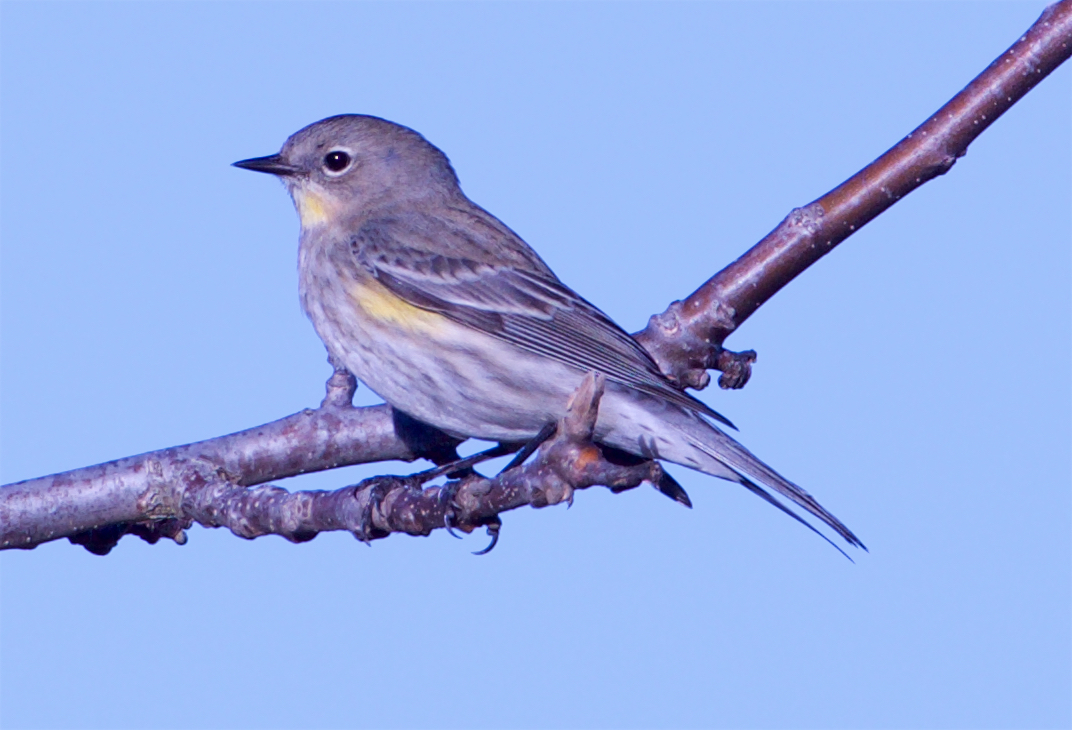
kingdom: Animalia
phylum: Chordata
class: Aves
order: Passeriformes
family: Parulidae
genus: Setophaga
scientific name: Setophaga coronata
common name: Myrtle warbler
